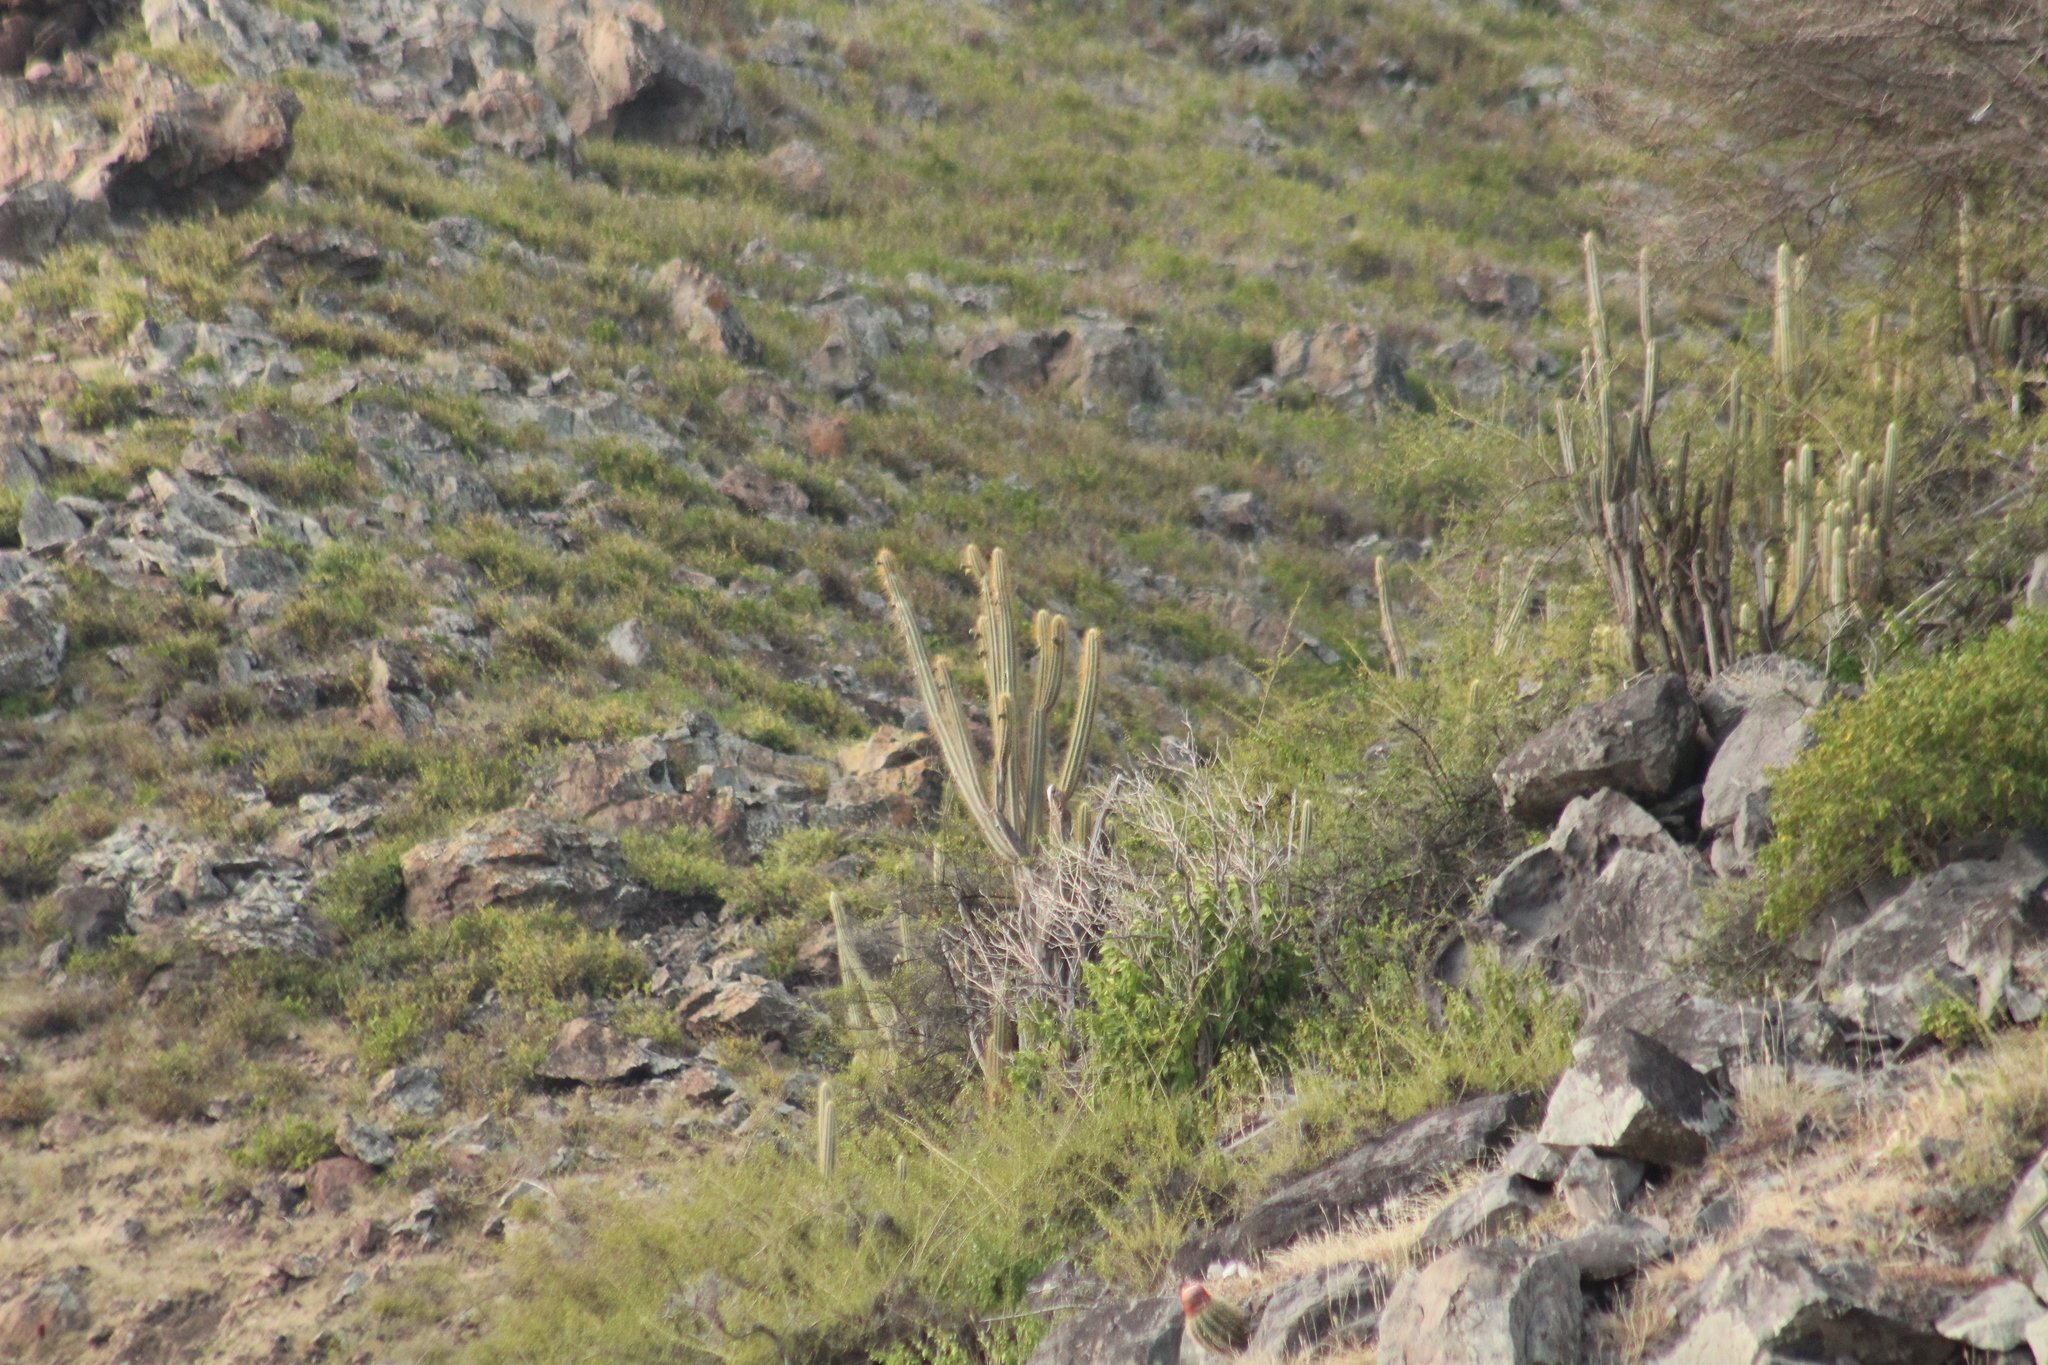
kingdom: Plantae
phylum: Tracheophyta
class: Magnoliopsida
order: Caryophyllales
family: Cactaceae
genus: Pilosocereus
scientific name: Pilosocereus curtisii
